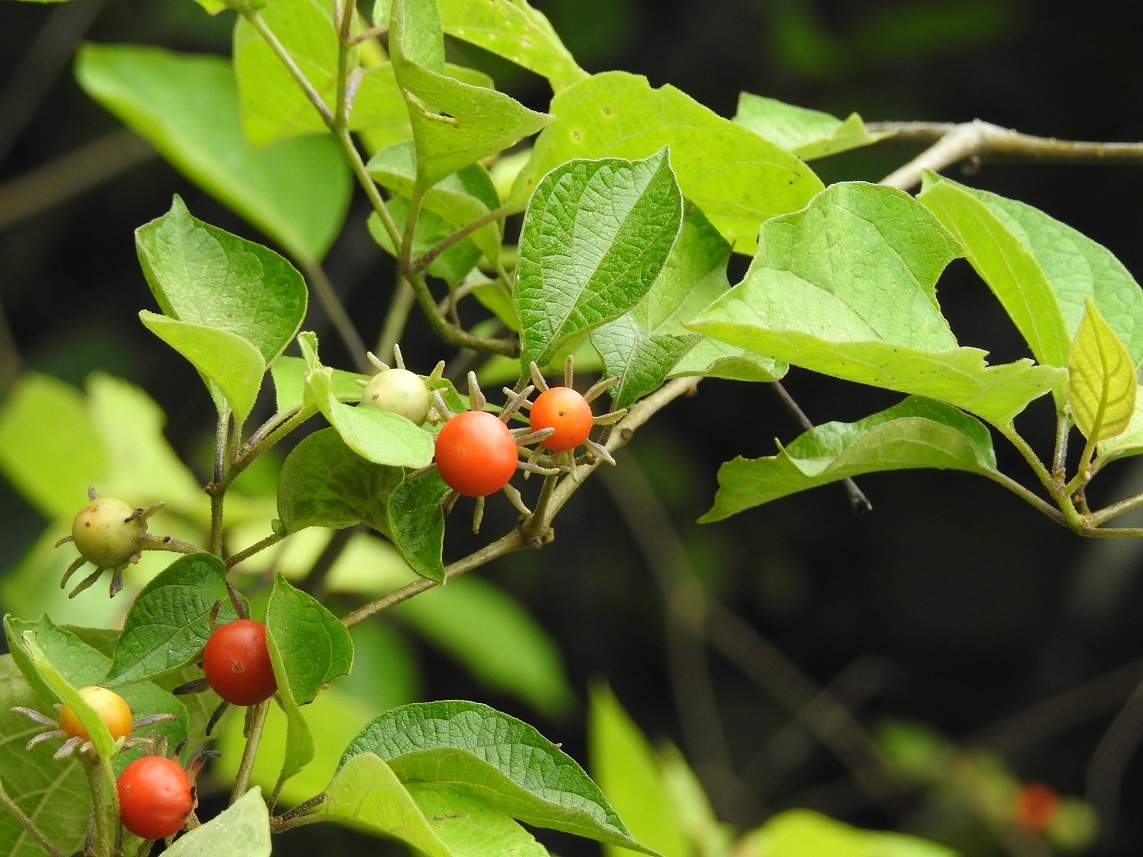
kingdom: Plantae
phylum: Tracheophyta
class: Magnoliopsida
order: Solanales
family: Solanaceae
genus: Lycianthes
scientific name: Lycianthes scandens
